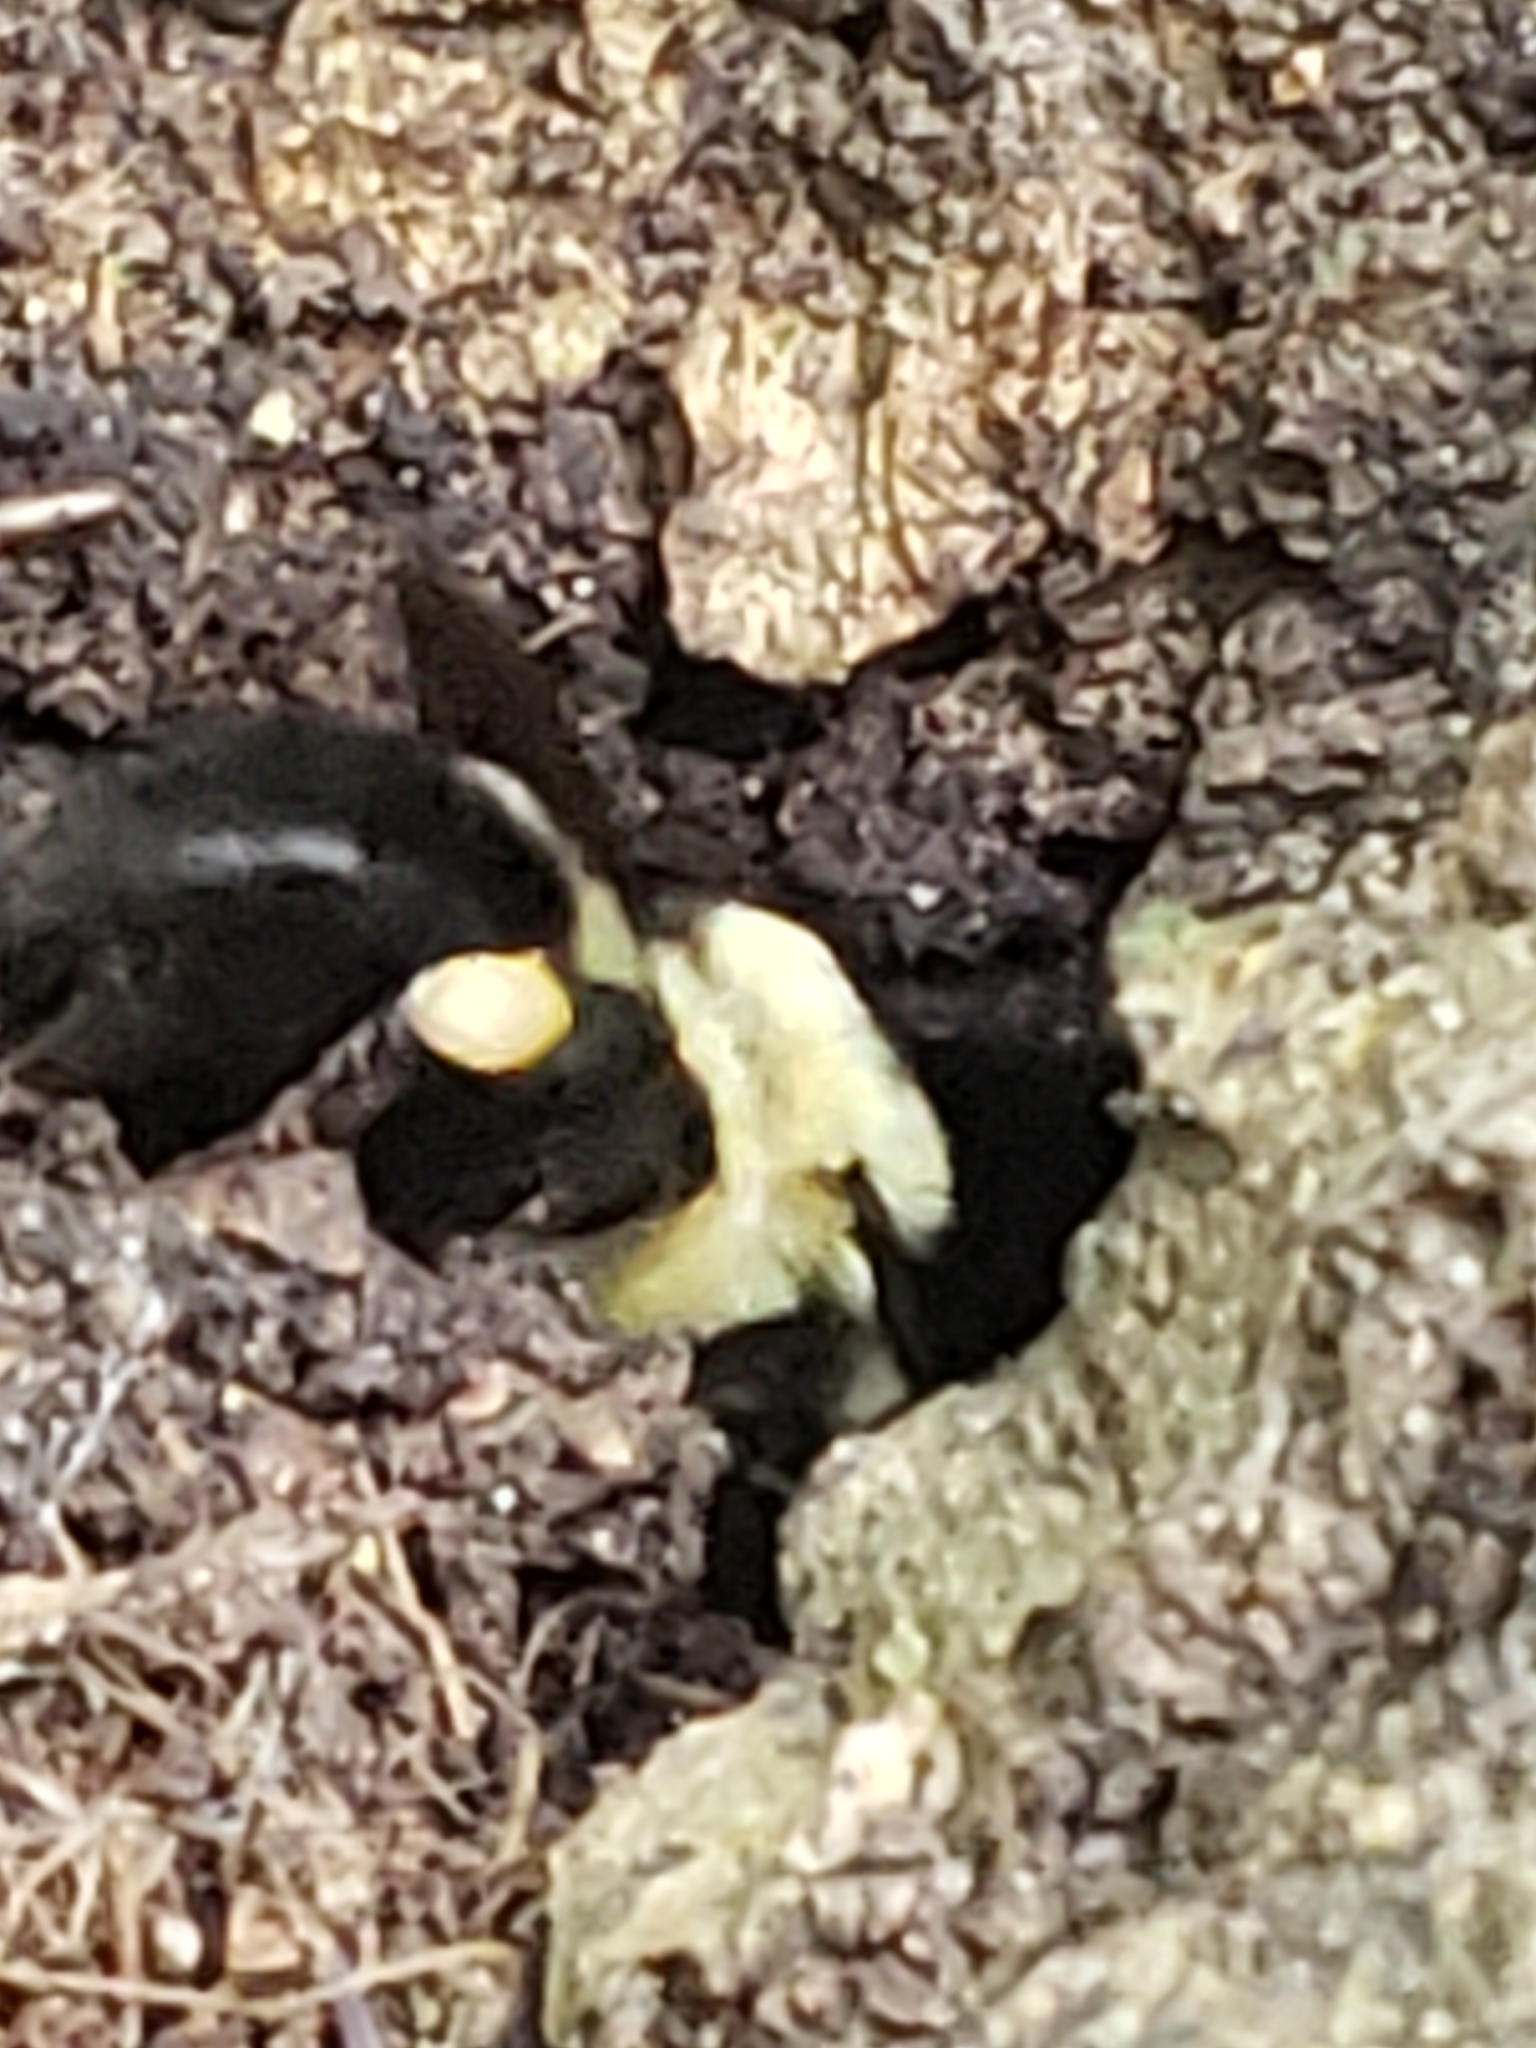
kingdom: Animalia
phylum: Arthropoda
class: Insecta
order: Hymenoptera
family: Apidae
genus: Bombus
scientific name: Bombus bimaculatus
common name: Two-spotted bumble bee
